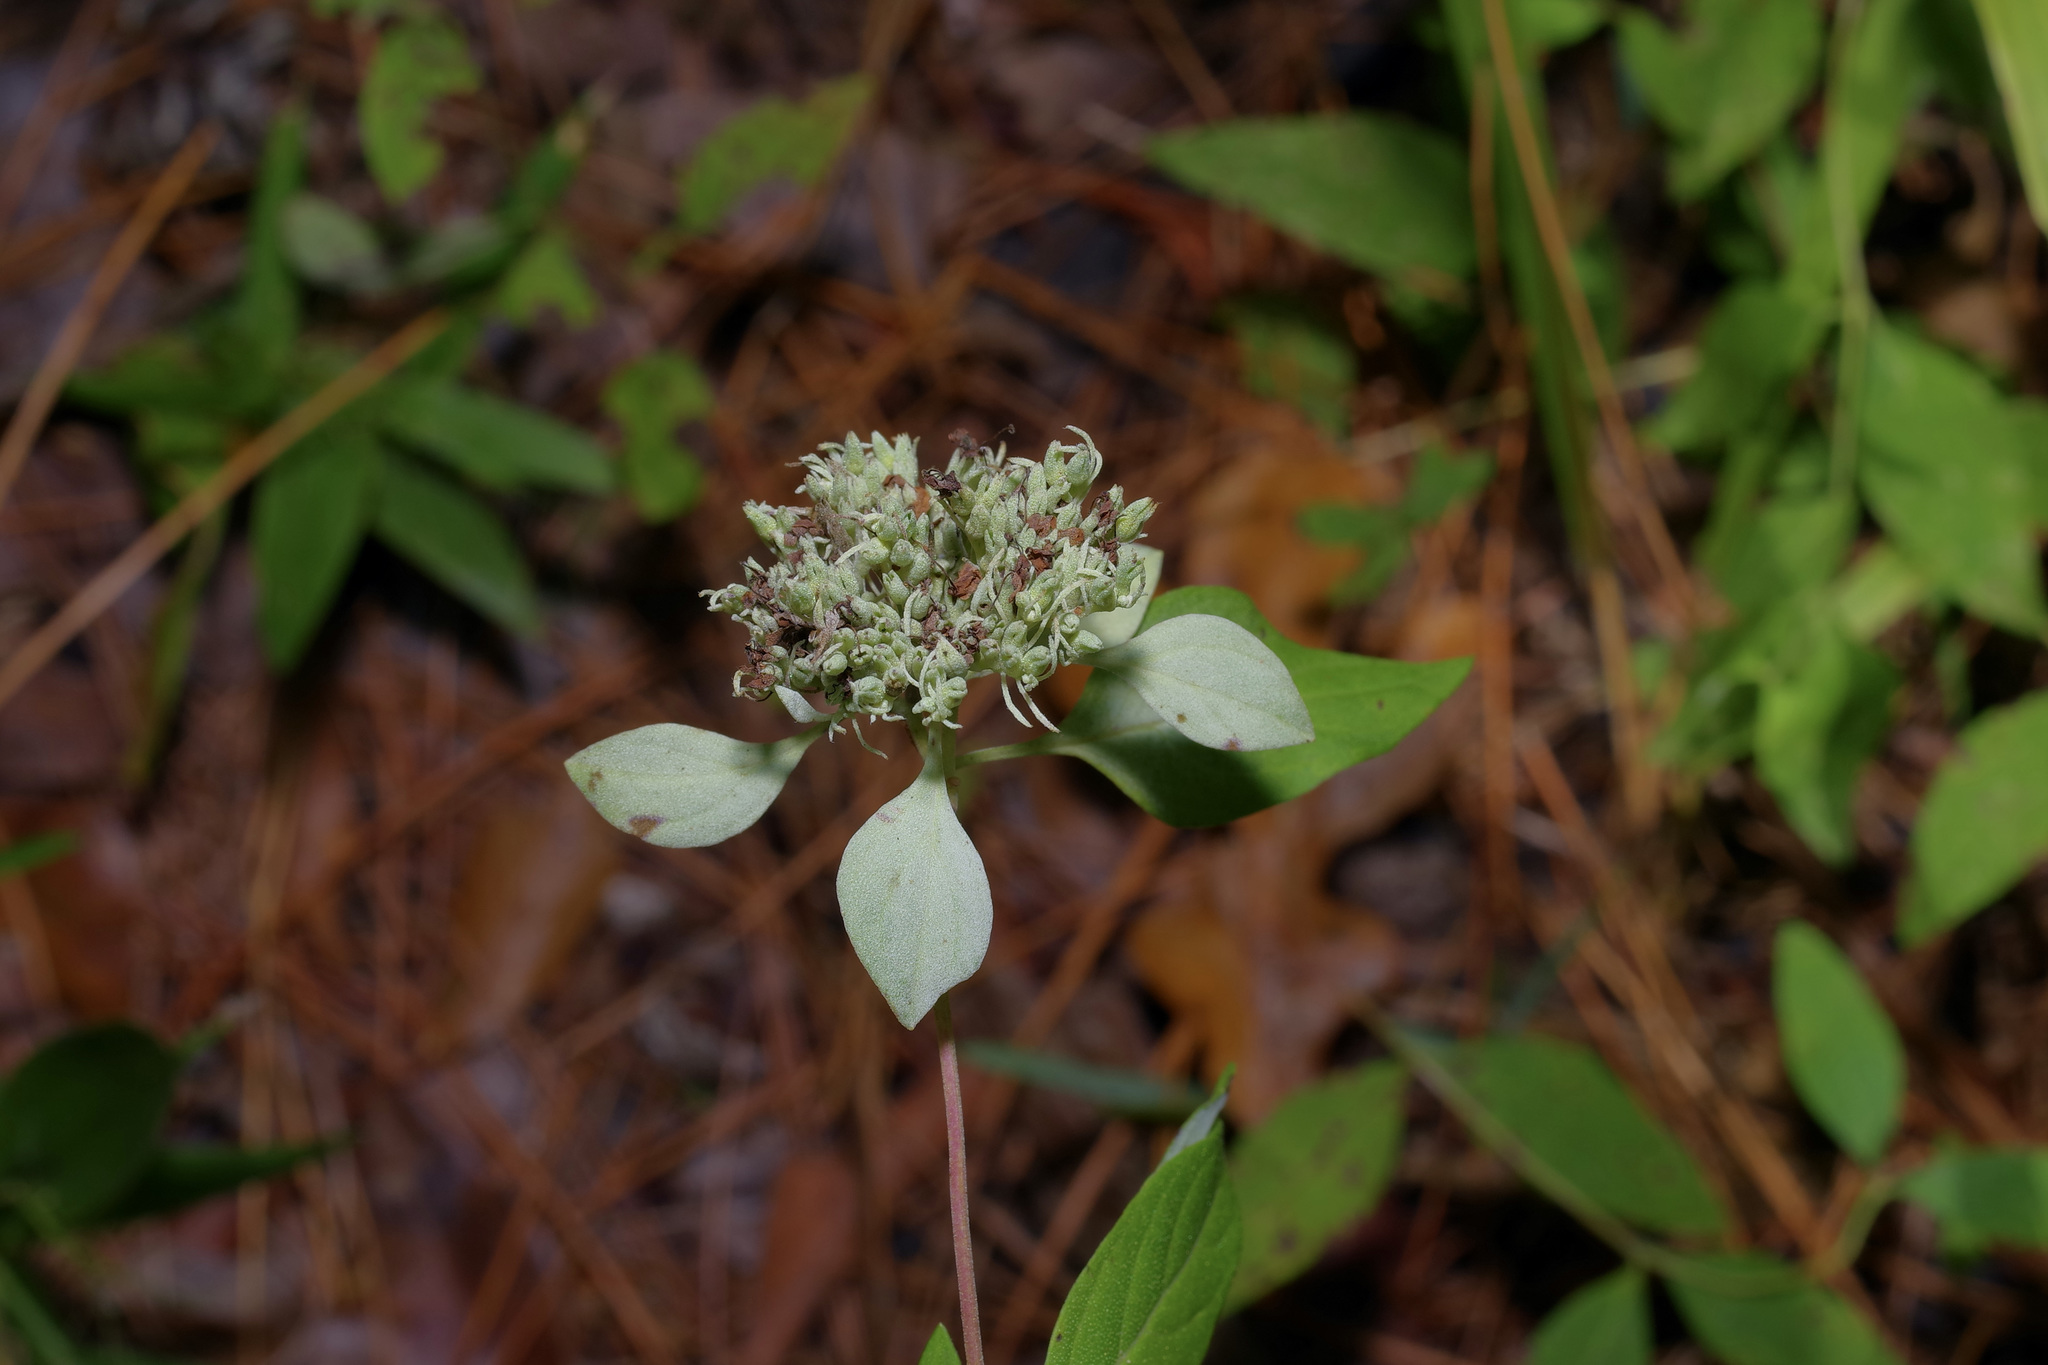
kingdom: Plantae
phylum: Tracheophyta
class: Magnoliopsida
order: Lamiales
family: Lamiaceae
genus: Pycnanthemum
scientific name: Pycnanthemum albescens
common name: White-leaf mountain-mint
